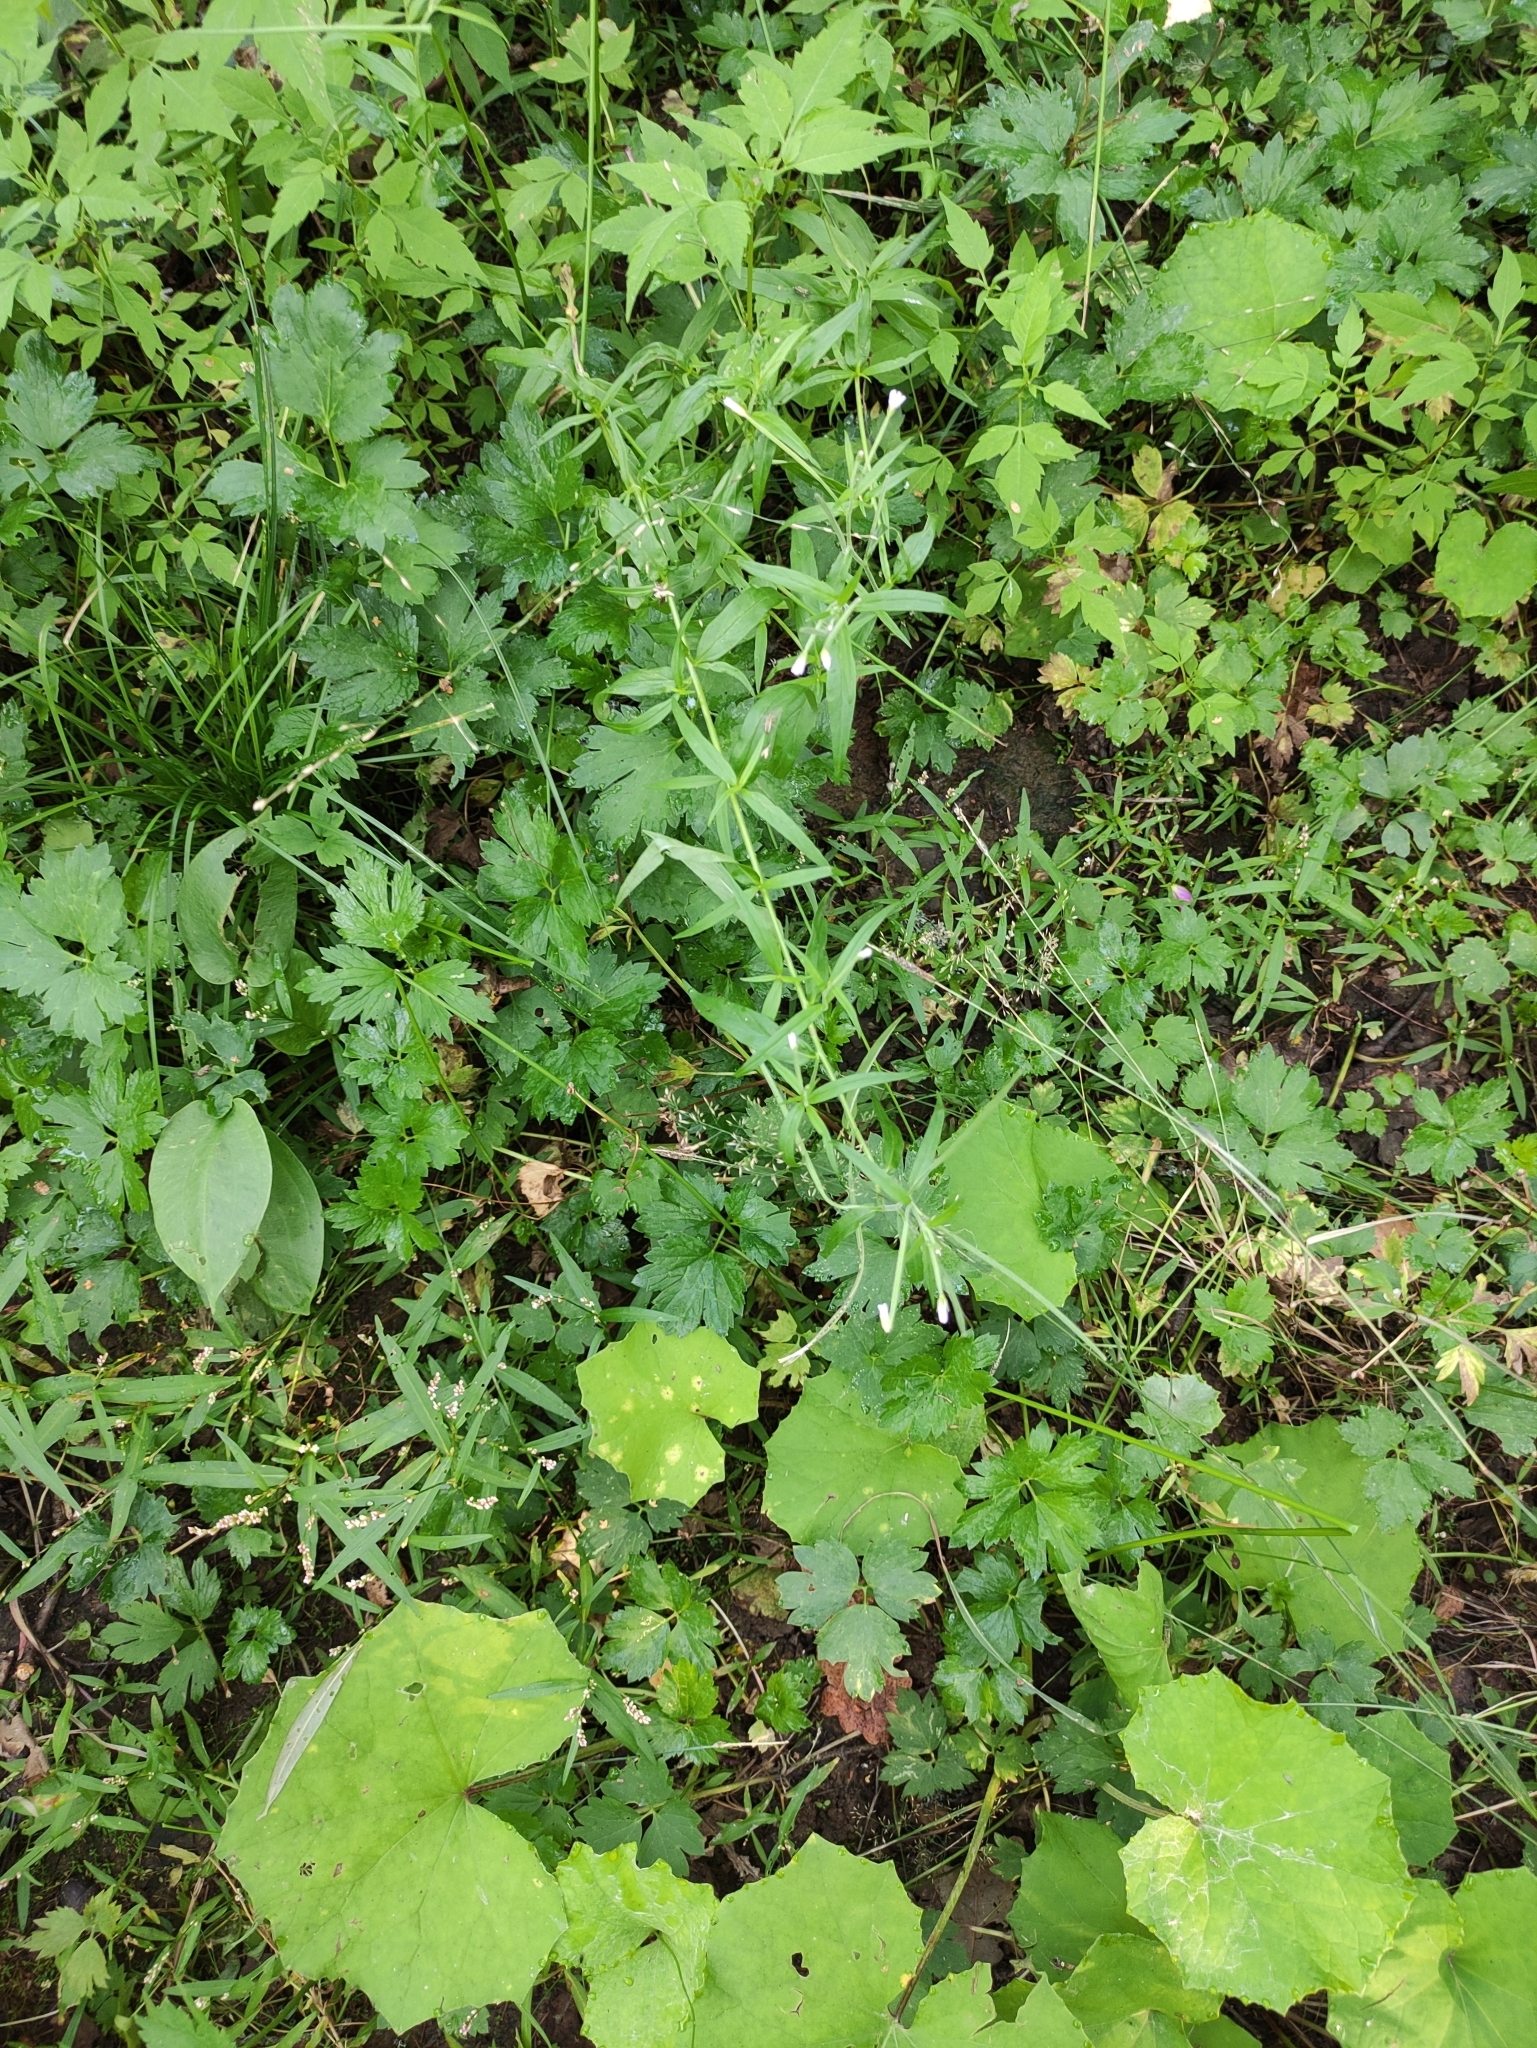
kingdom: Plantae
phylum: Tracheophyta
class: Magnoliopsida
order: Myrtales
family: Onagraceae
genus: Epilobium
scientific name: Epilobium palustre
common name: Marsh willowherb
